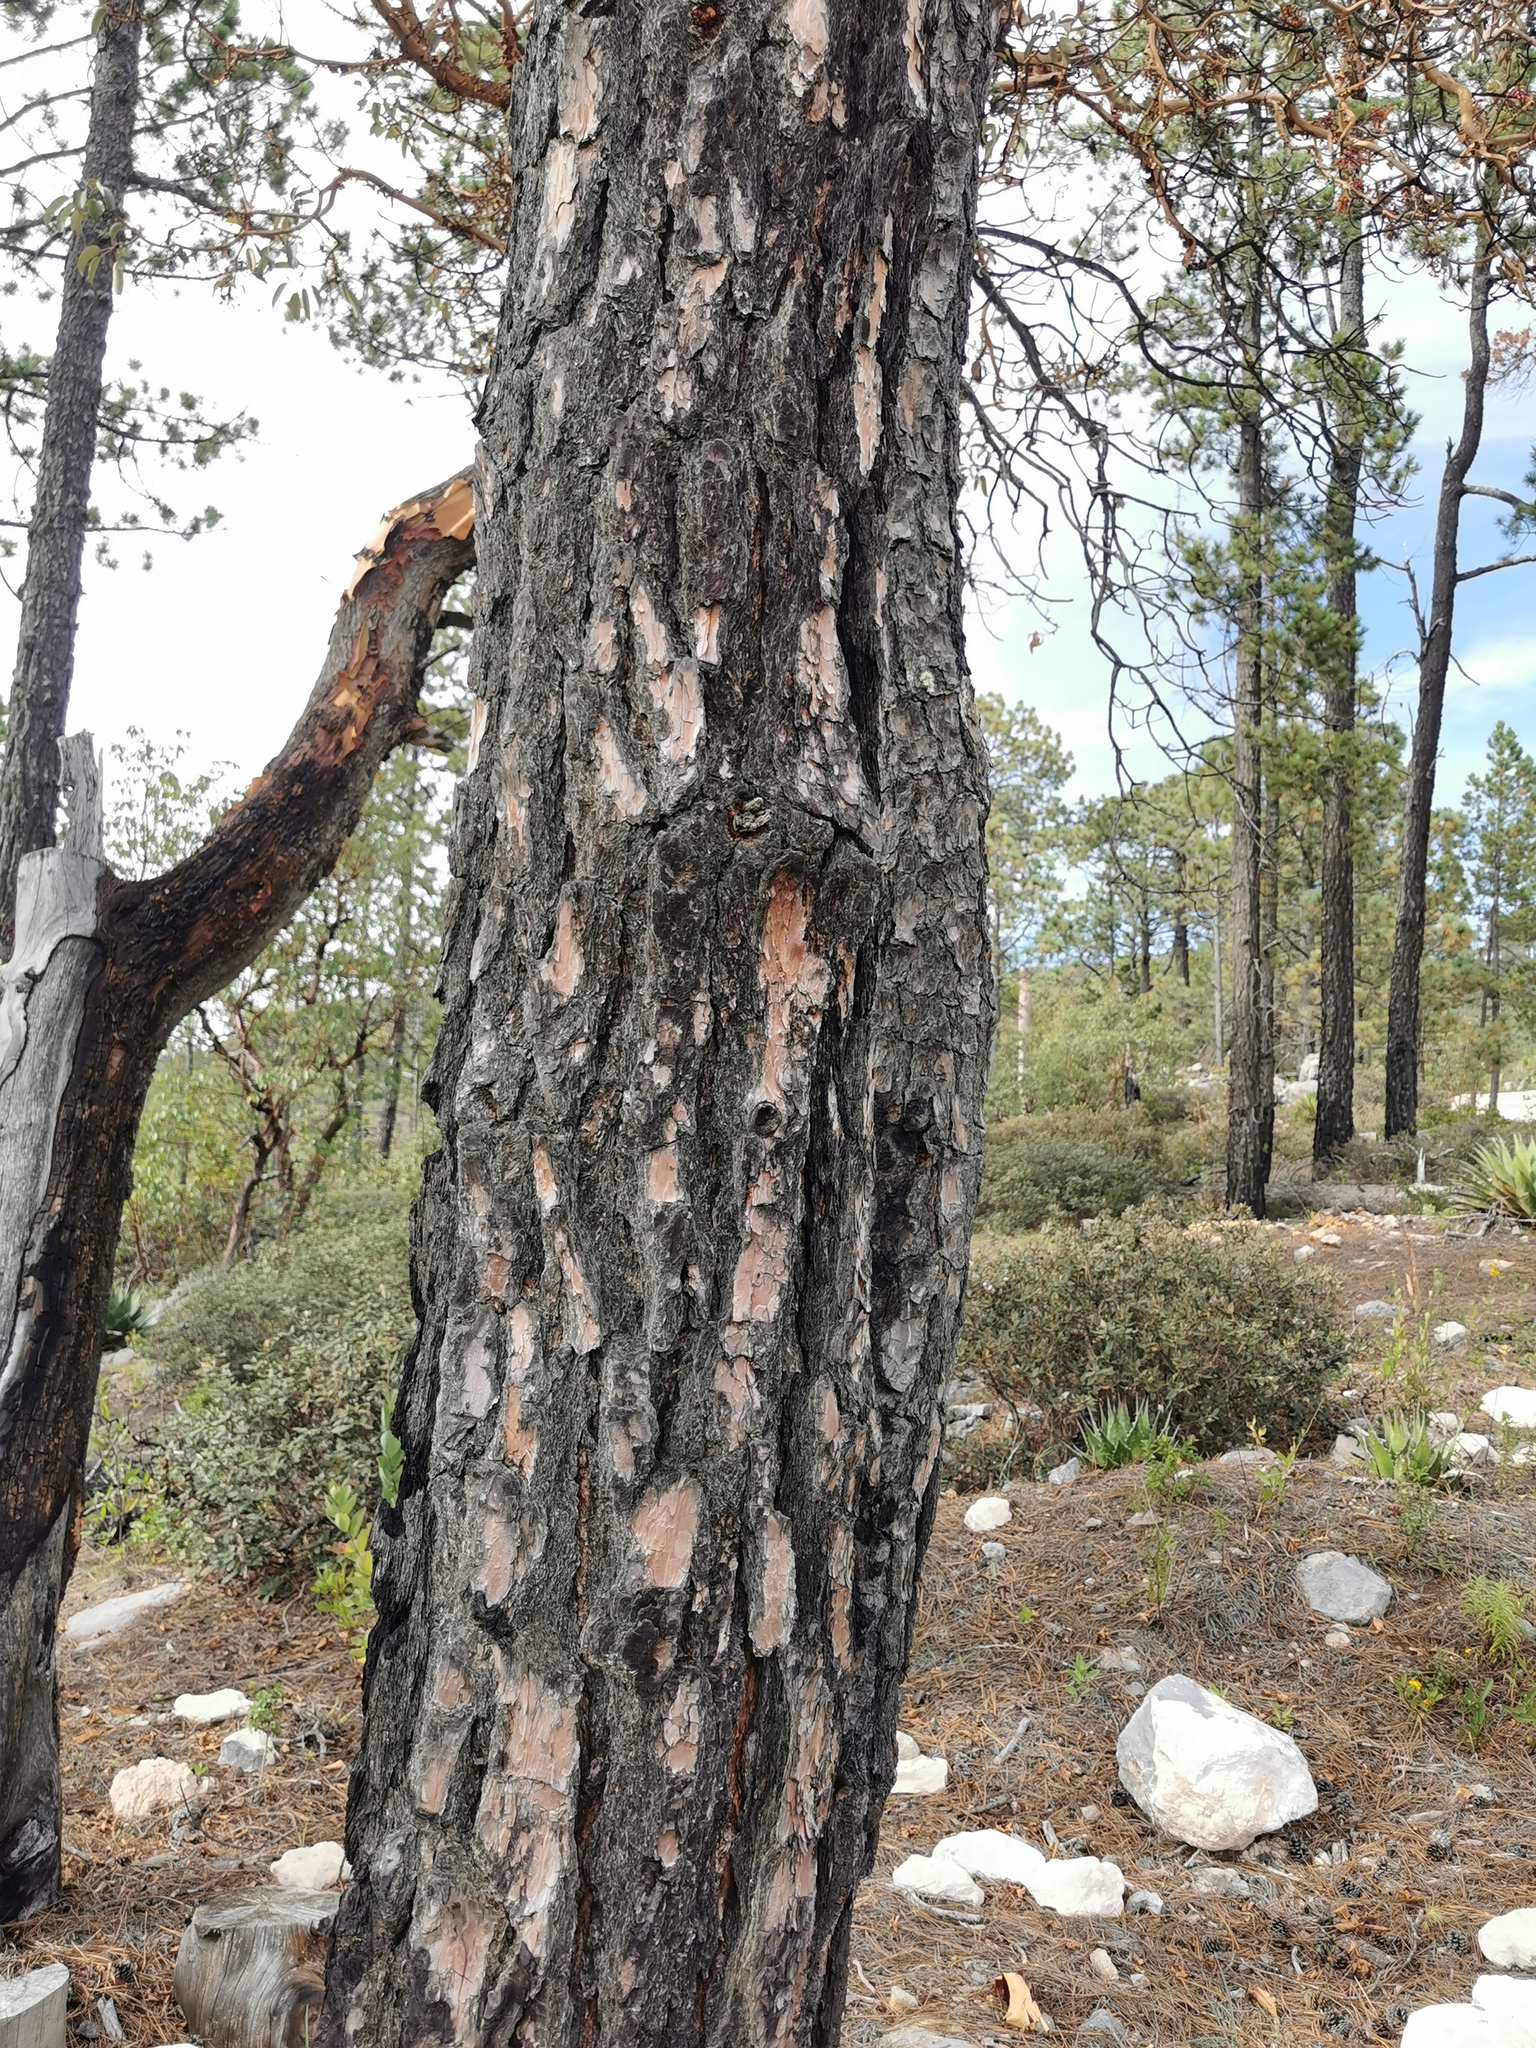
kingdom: Plantae
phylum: Tracheophyta
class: Pinopsida
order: Pinales
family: Pinaceae
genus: Pinus
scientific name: Pinus teocote
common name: Aztec pine
